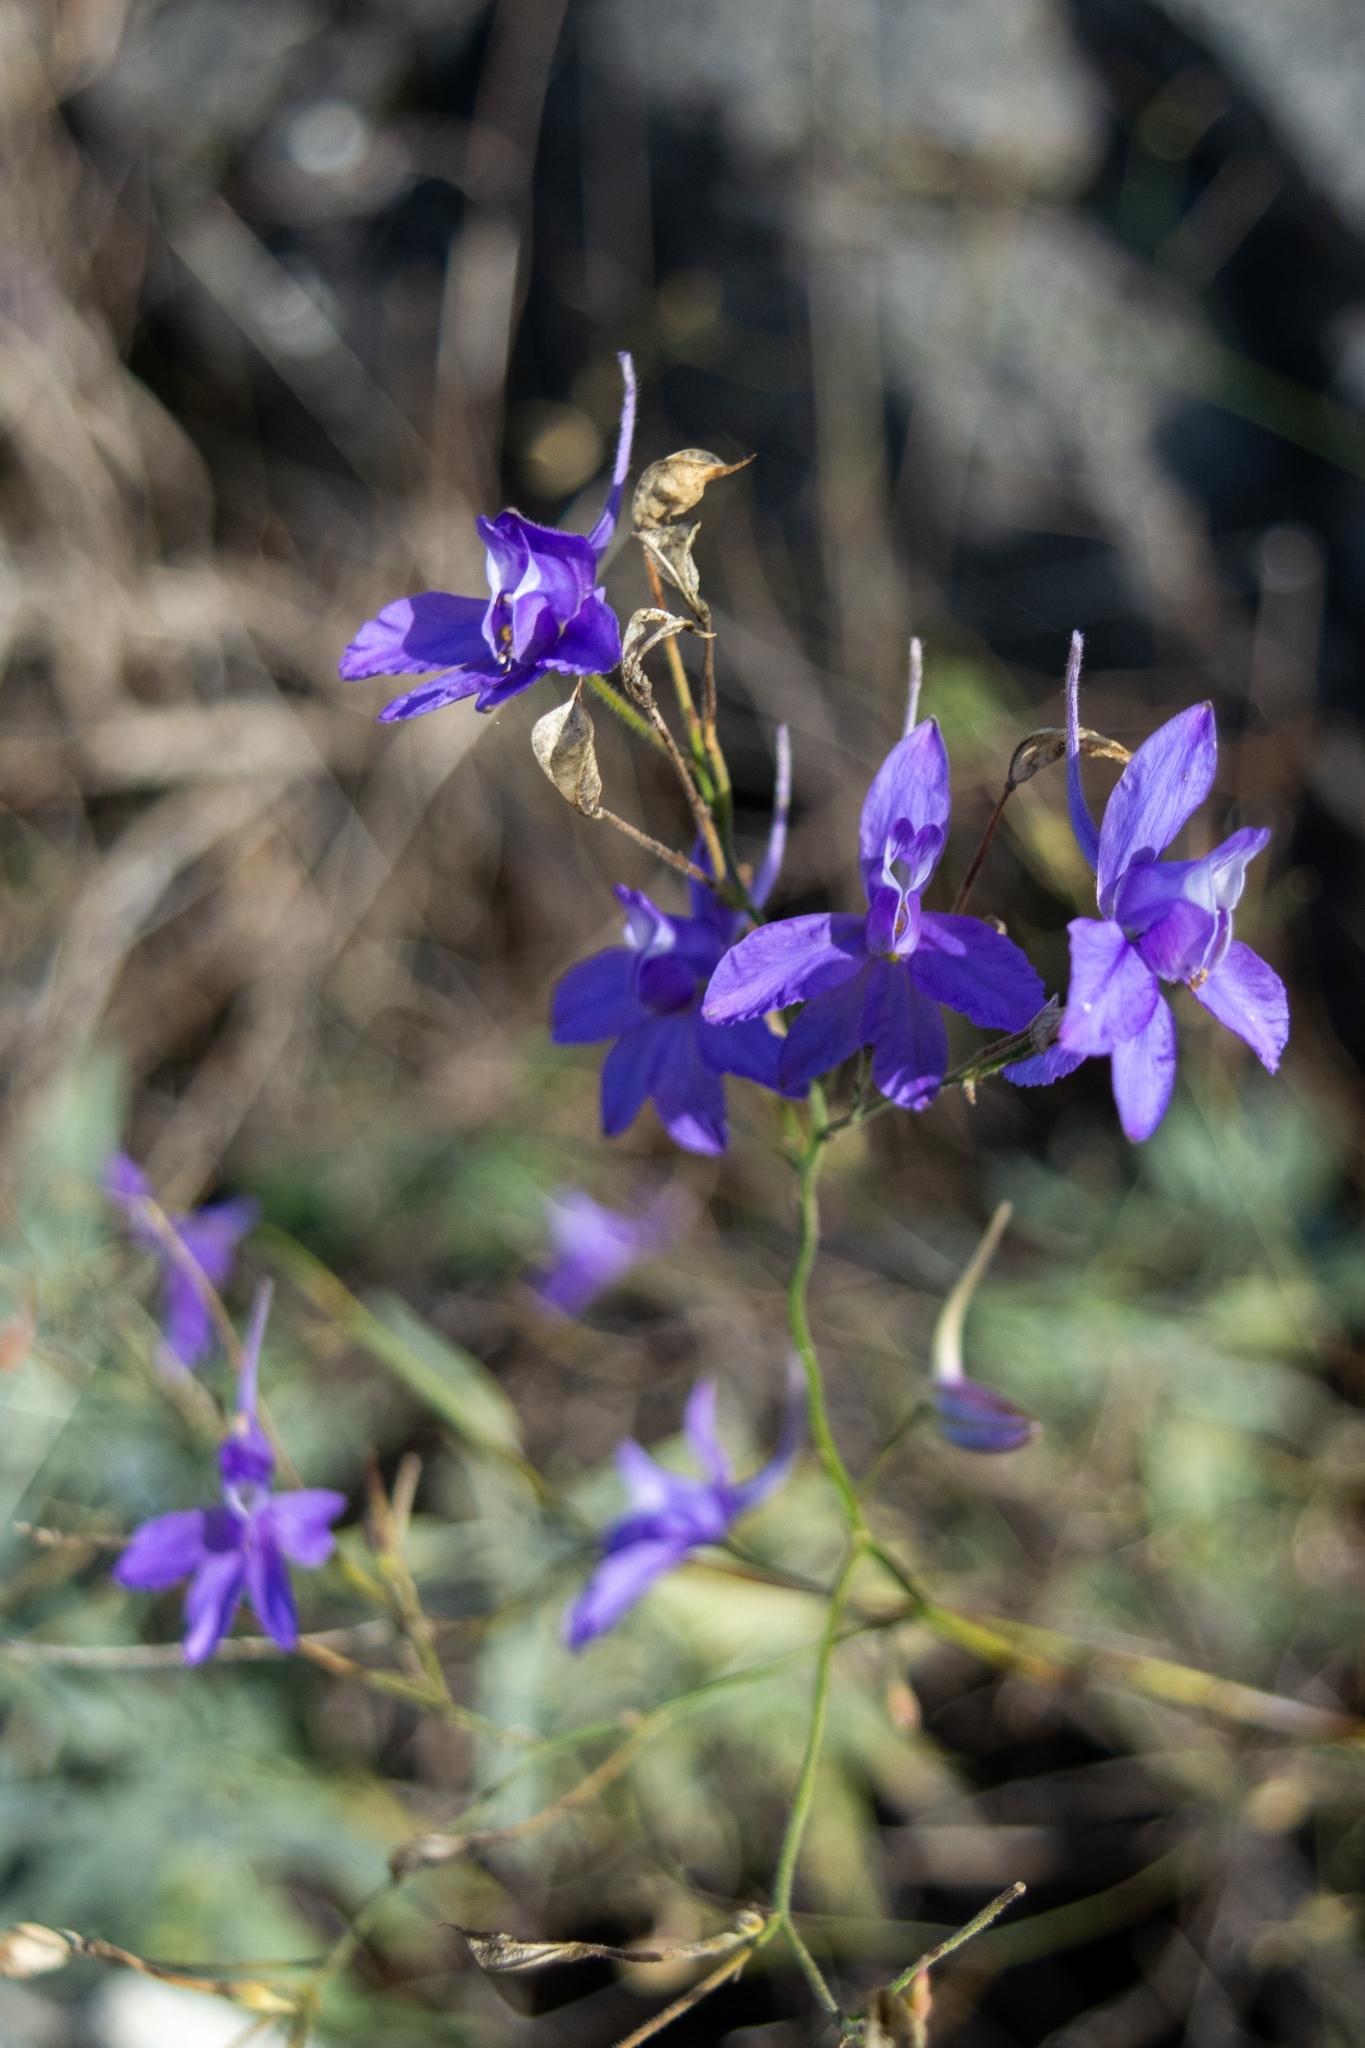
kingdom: Plantae
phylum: Tracheophyta
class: Magnoliopsida
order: Ranunculales
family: Ranunculaceae
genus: Delphinium
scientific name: Delphinium consolida
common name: Branching larkspur
